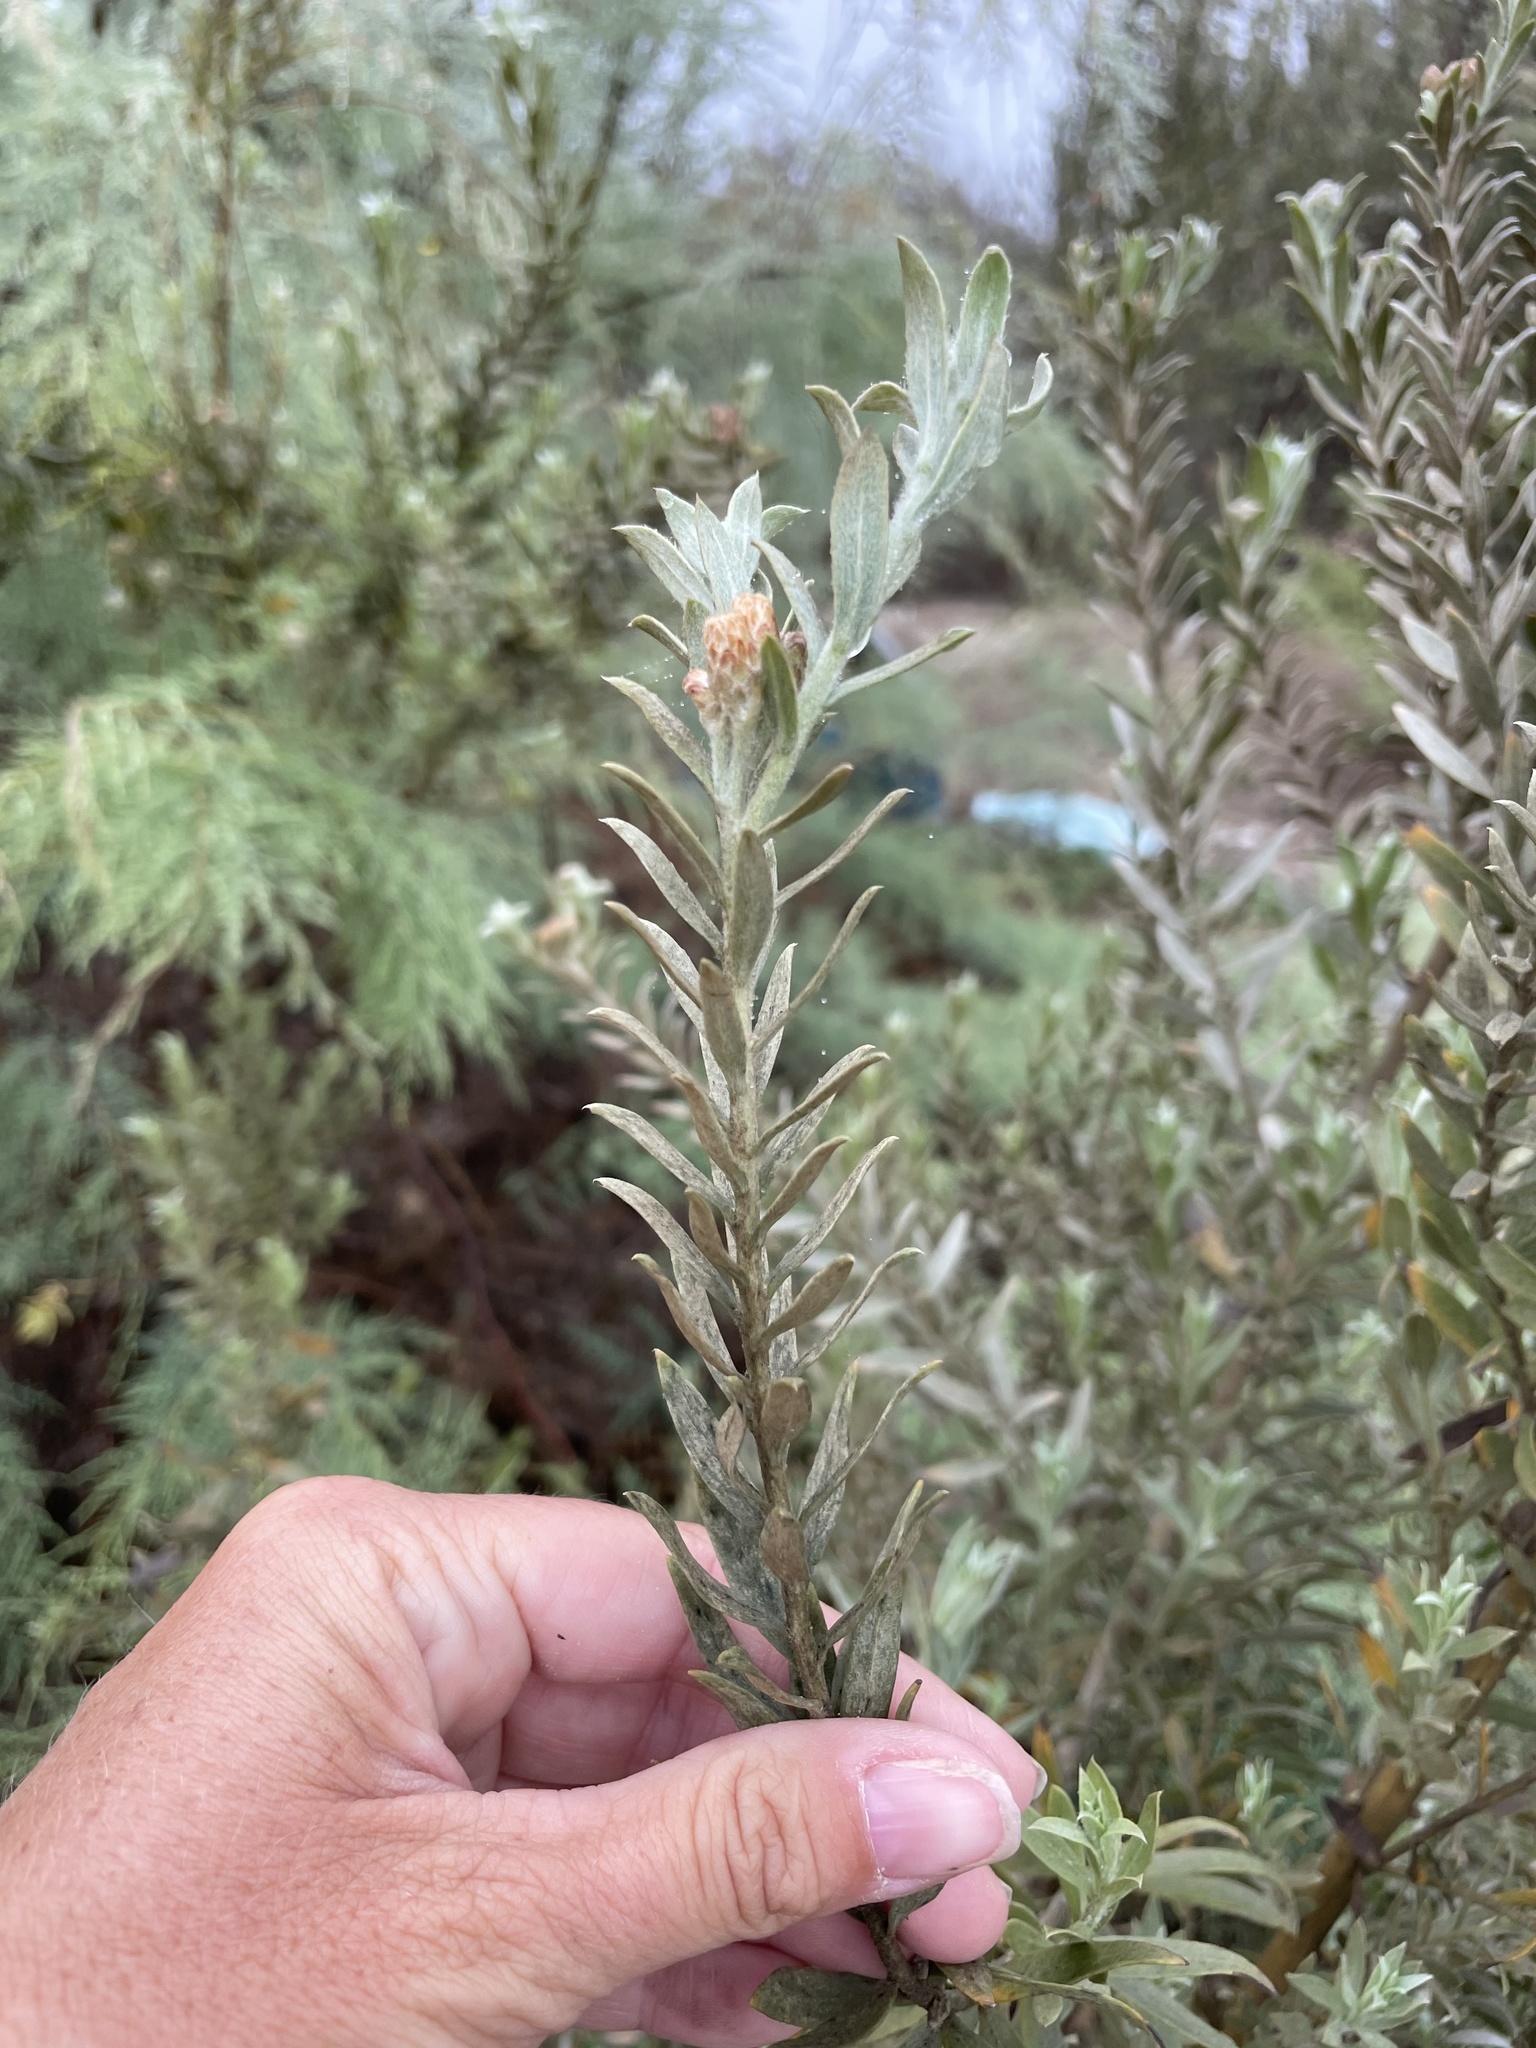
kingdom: Plantae
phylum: Tracheophyta
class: Magnoliopsida
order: Asterales
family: Asteraceae
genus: Pluchea
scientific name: Pluchea sericea
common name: Arrow-weed
